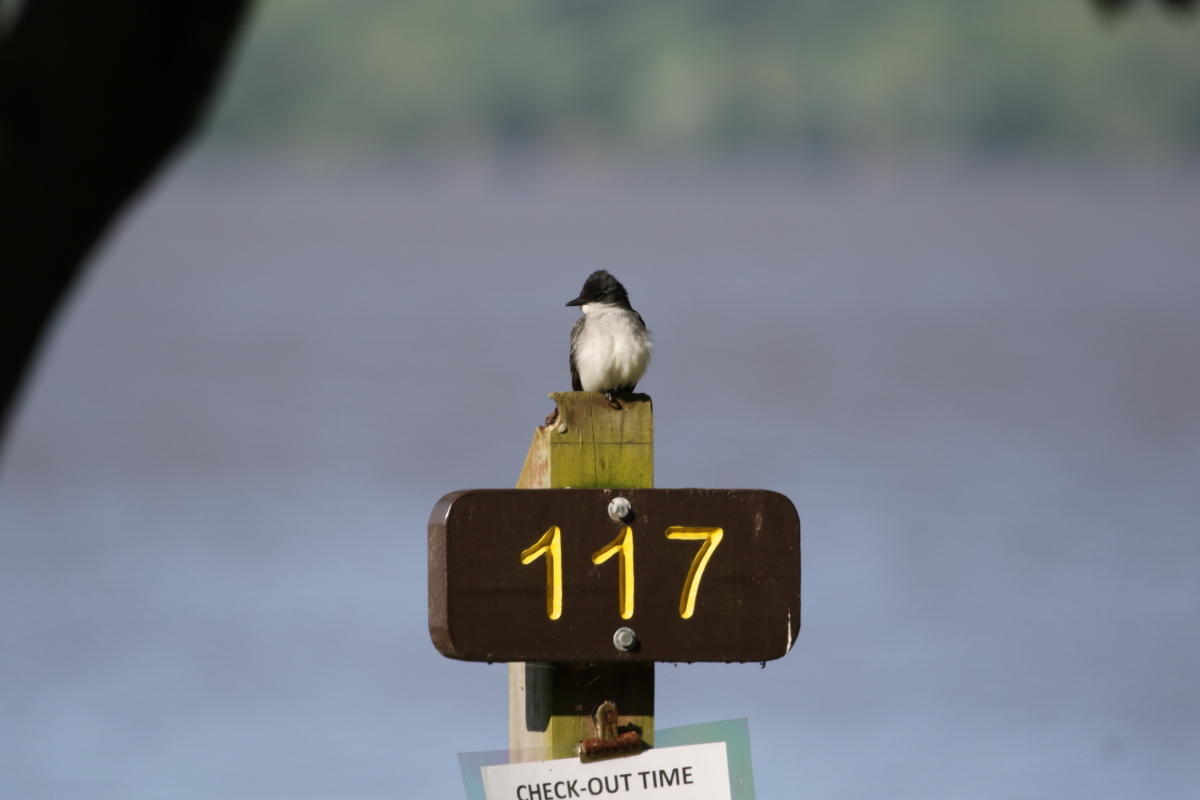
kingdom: Animalia
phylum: Chordata
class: Aves
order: Passeriformes
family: Tyrannidae
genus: Tyrannus
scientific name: Tyrannus tyrannus
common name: Eastern kingbird
